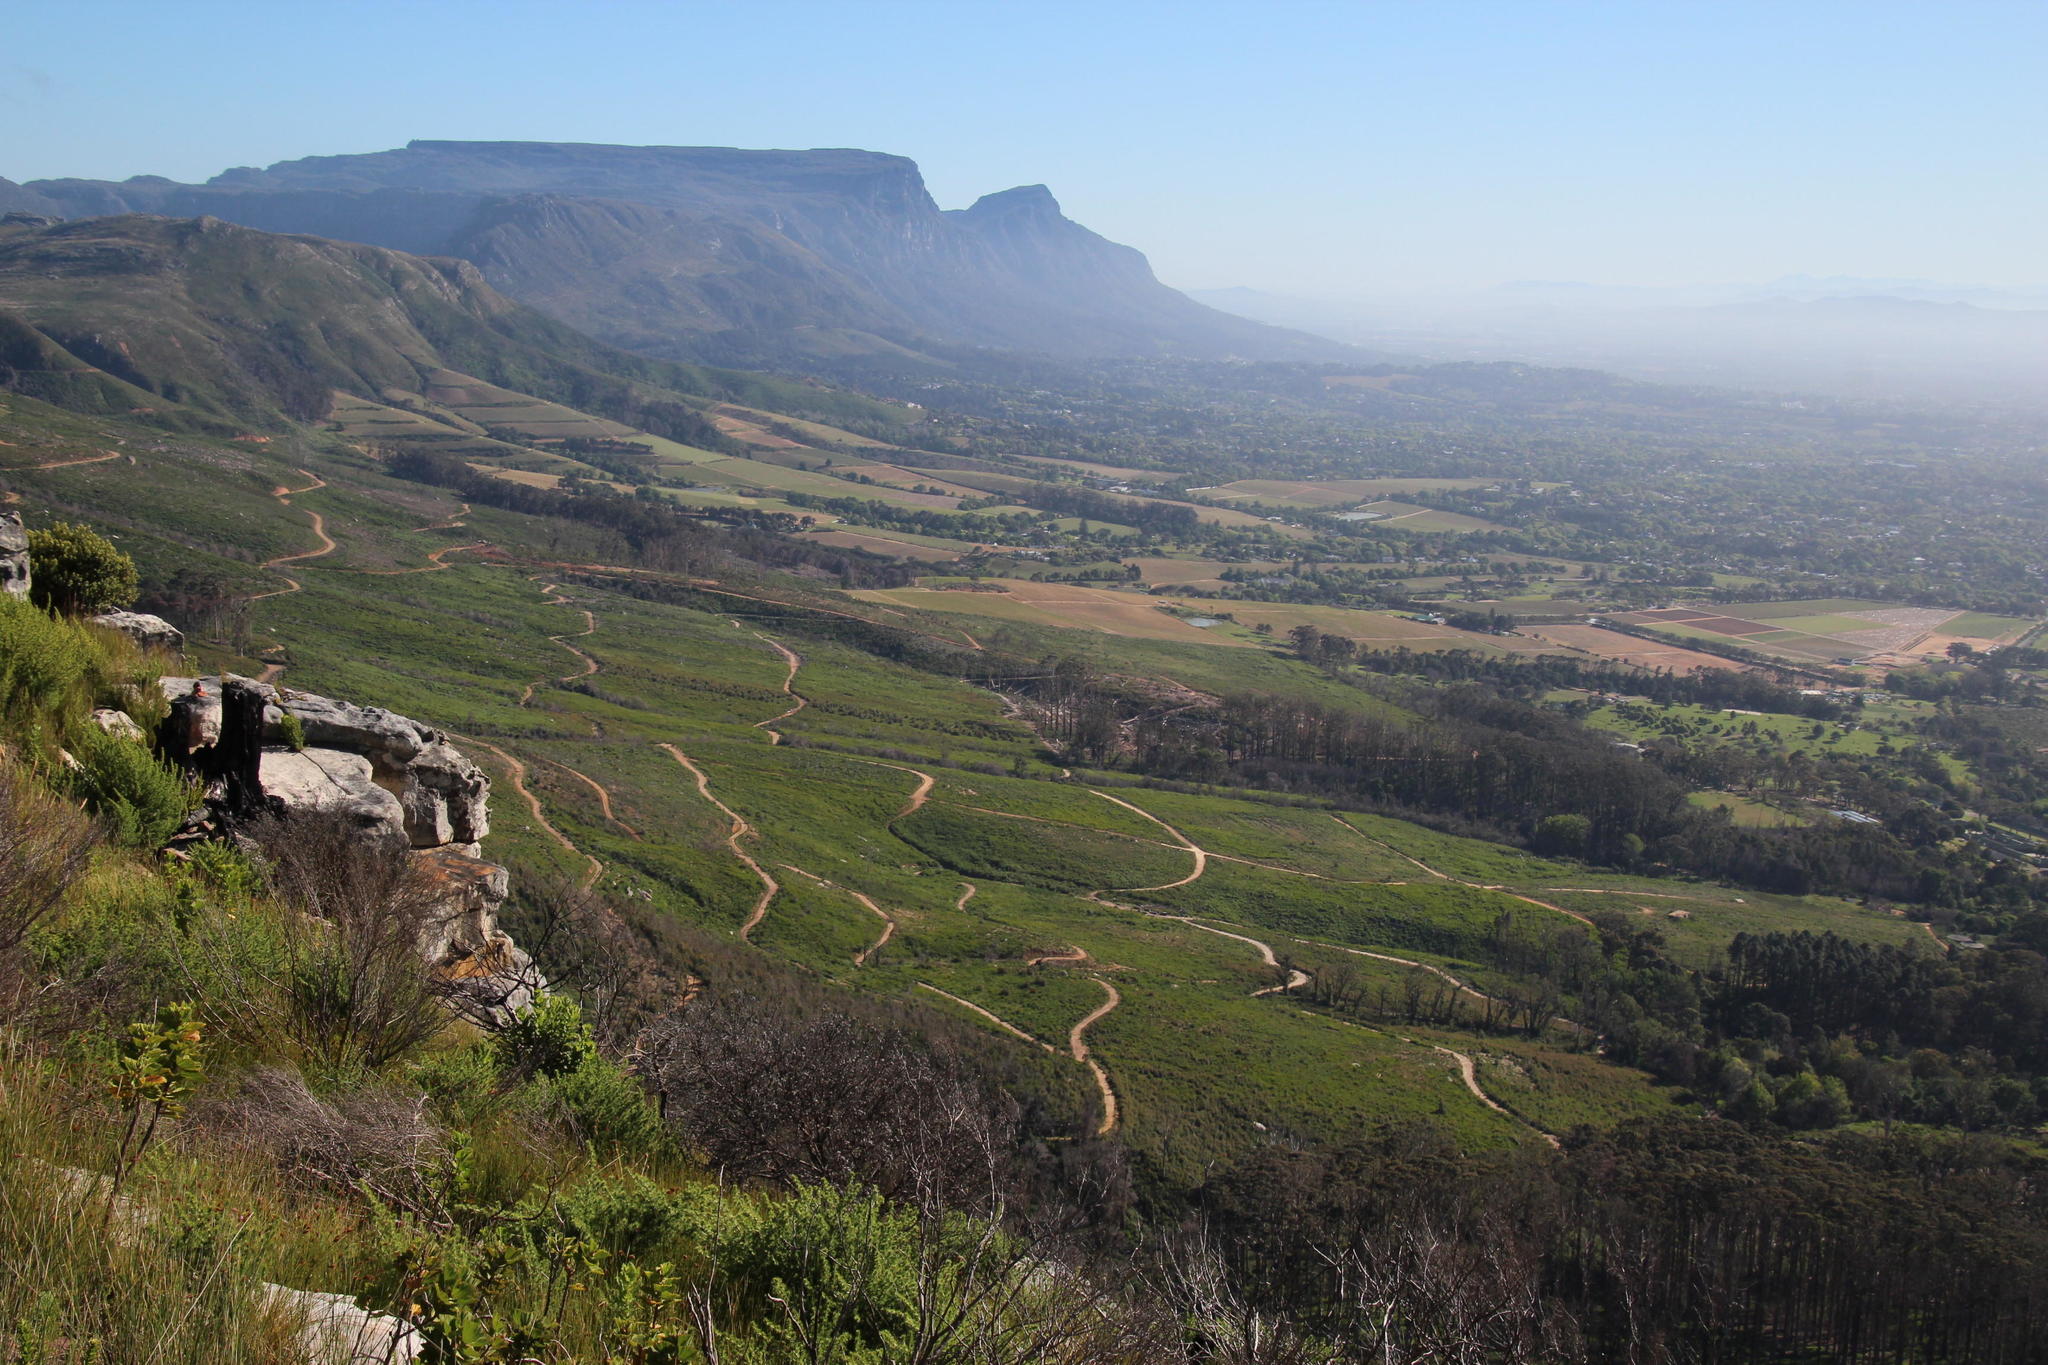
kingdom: Plantae
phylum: Tracheophyta
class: Magnoliopsida
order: Fabales
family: Fabaceae
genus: Acacia
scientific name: Acacia longifolia
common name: Sydney golden wattle
